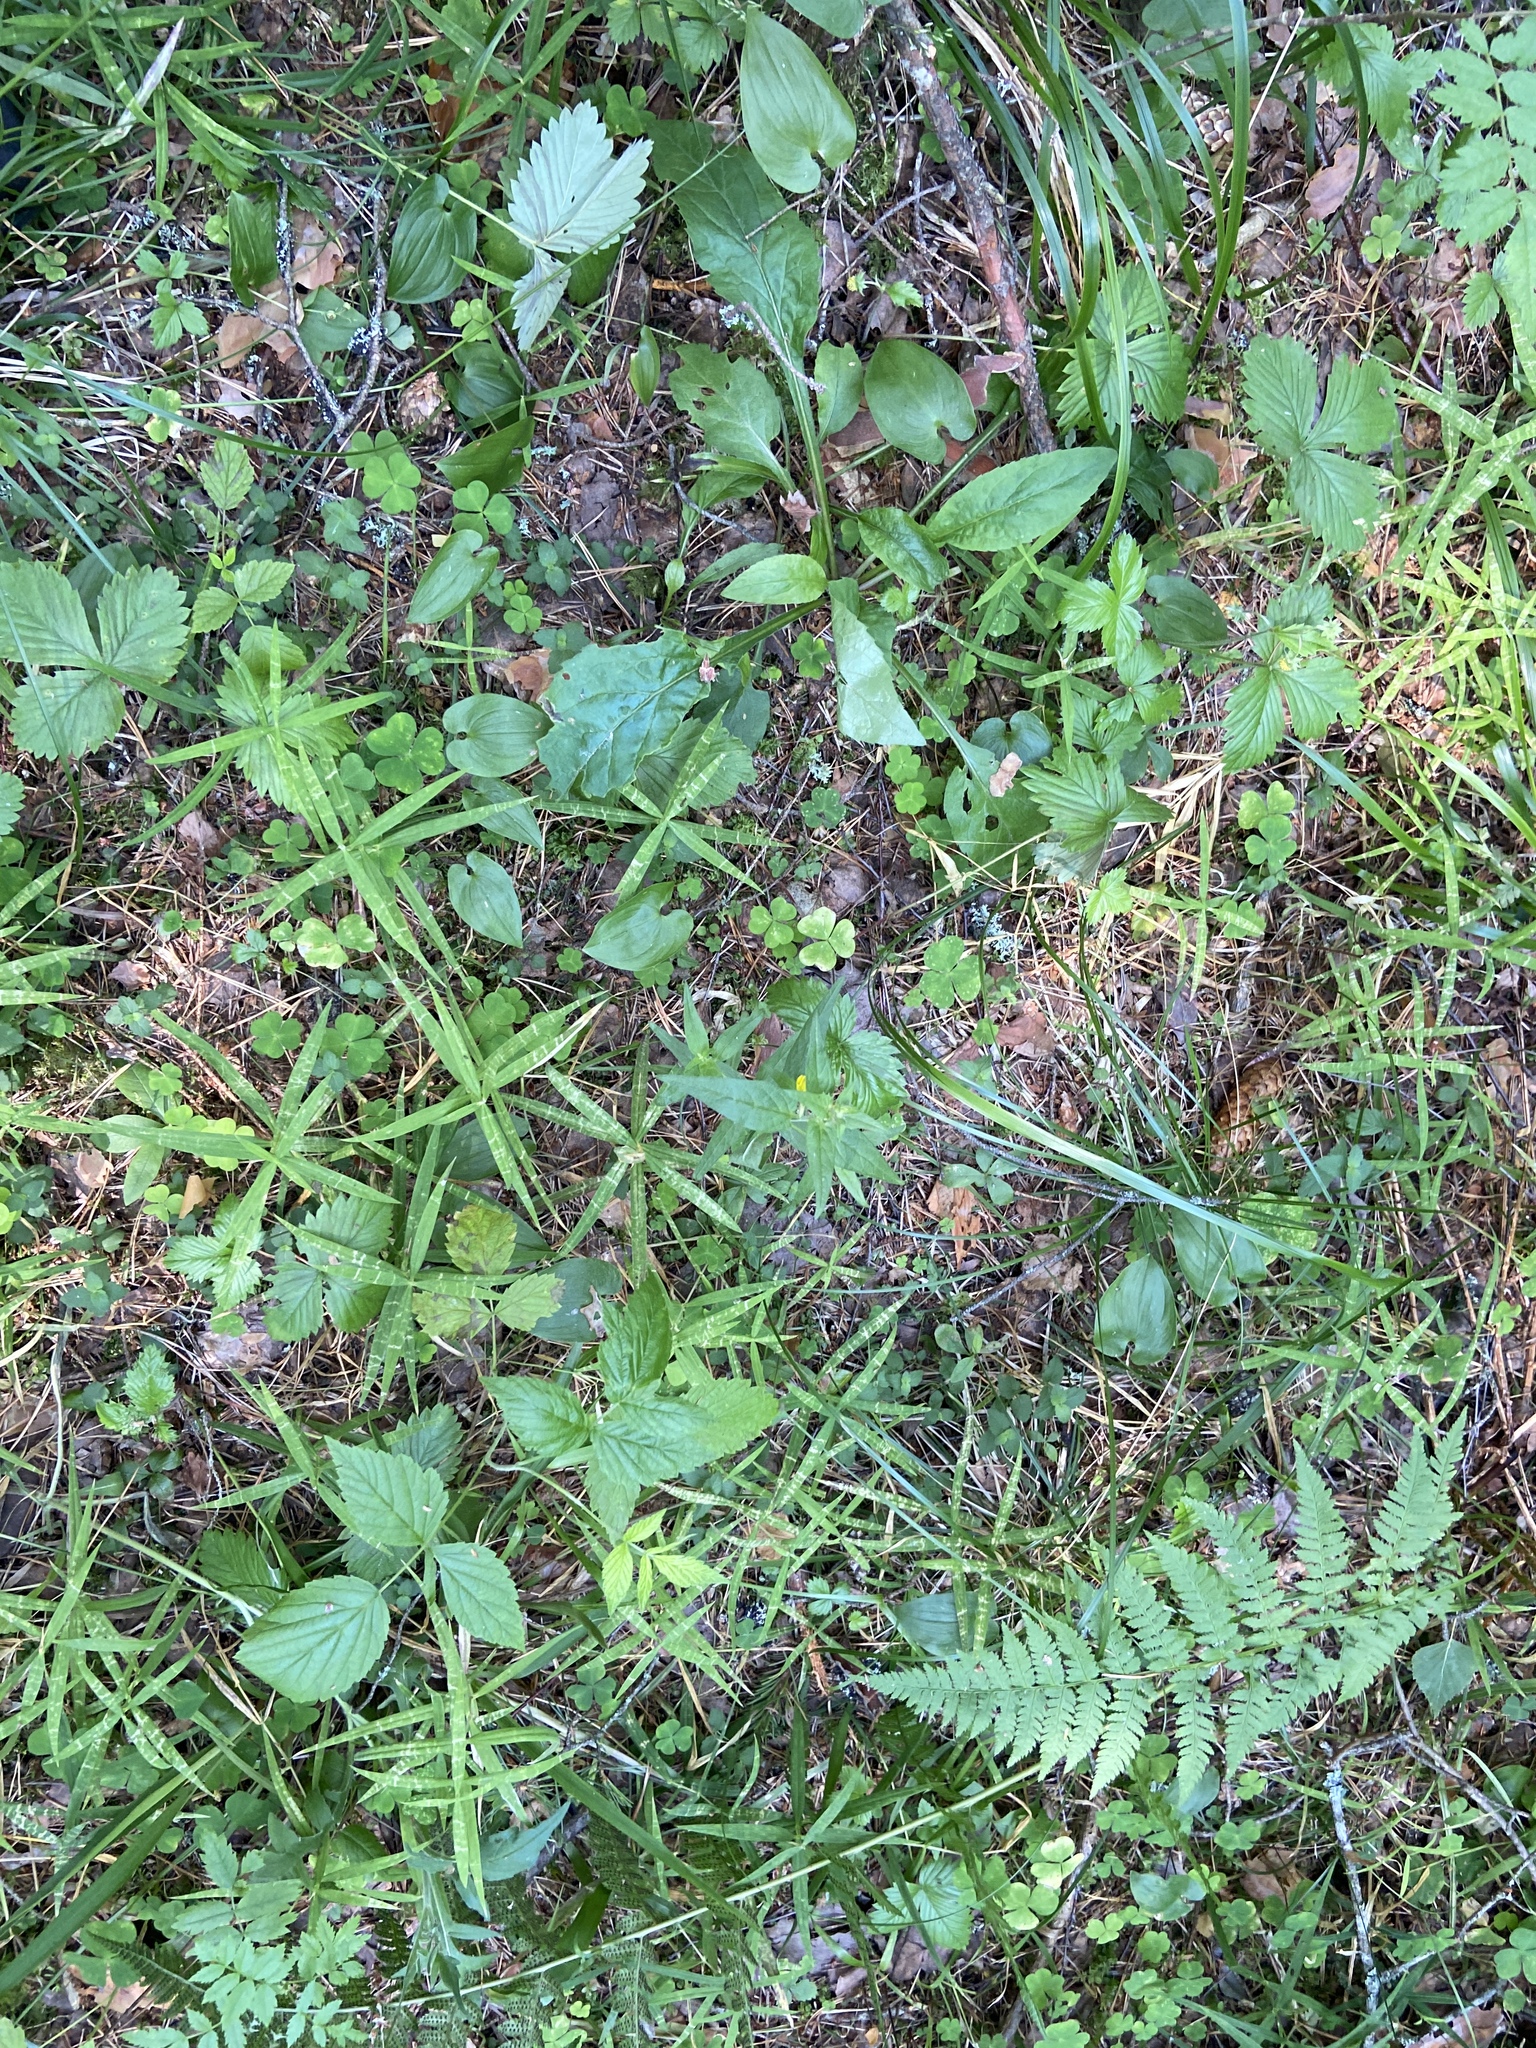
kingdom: Plantae
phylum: Tracheophyta
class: Magnoliopsida
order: Caryophyllales
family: Caryophyllaceae
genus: Rabelera
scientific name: Rabelera holostea
